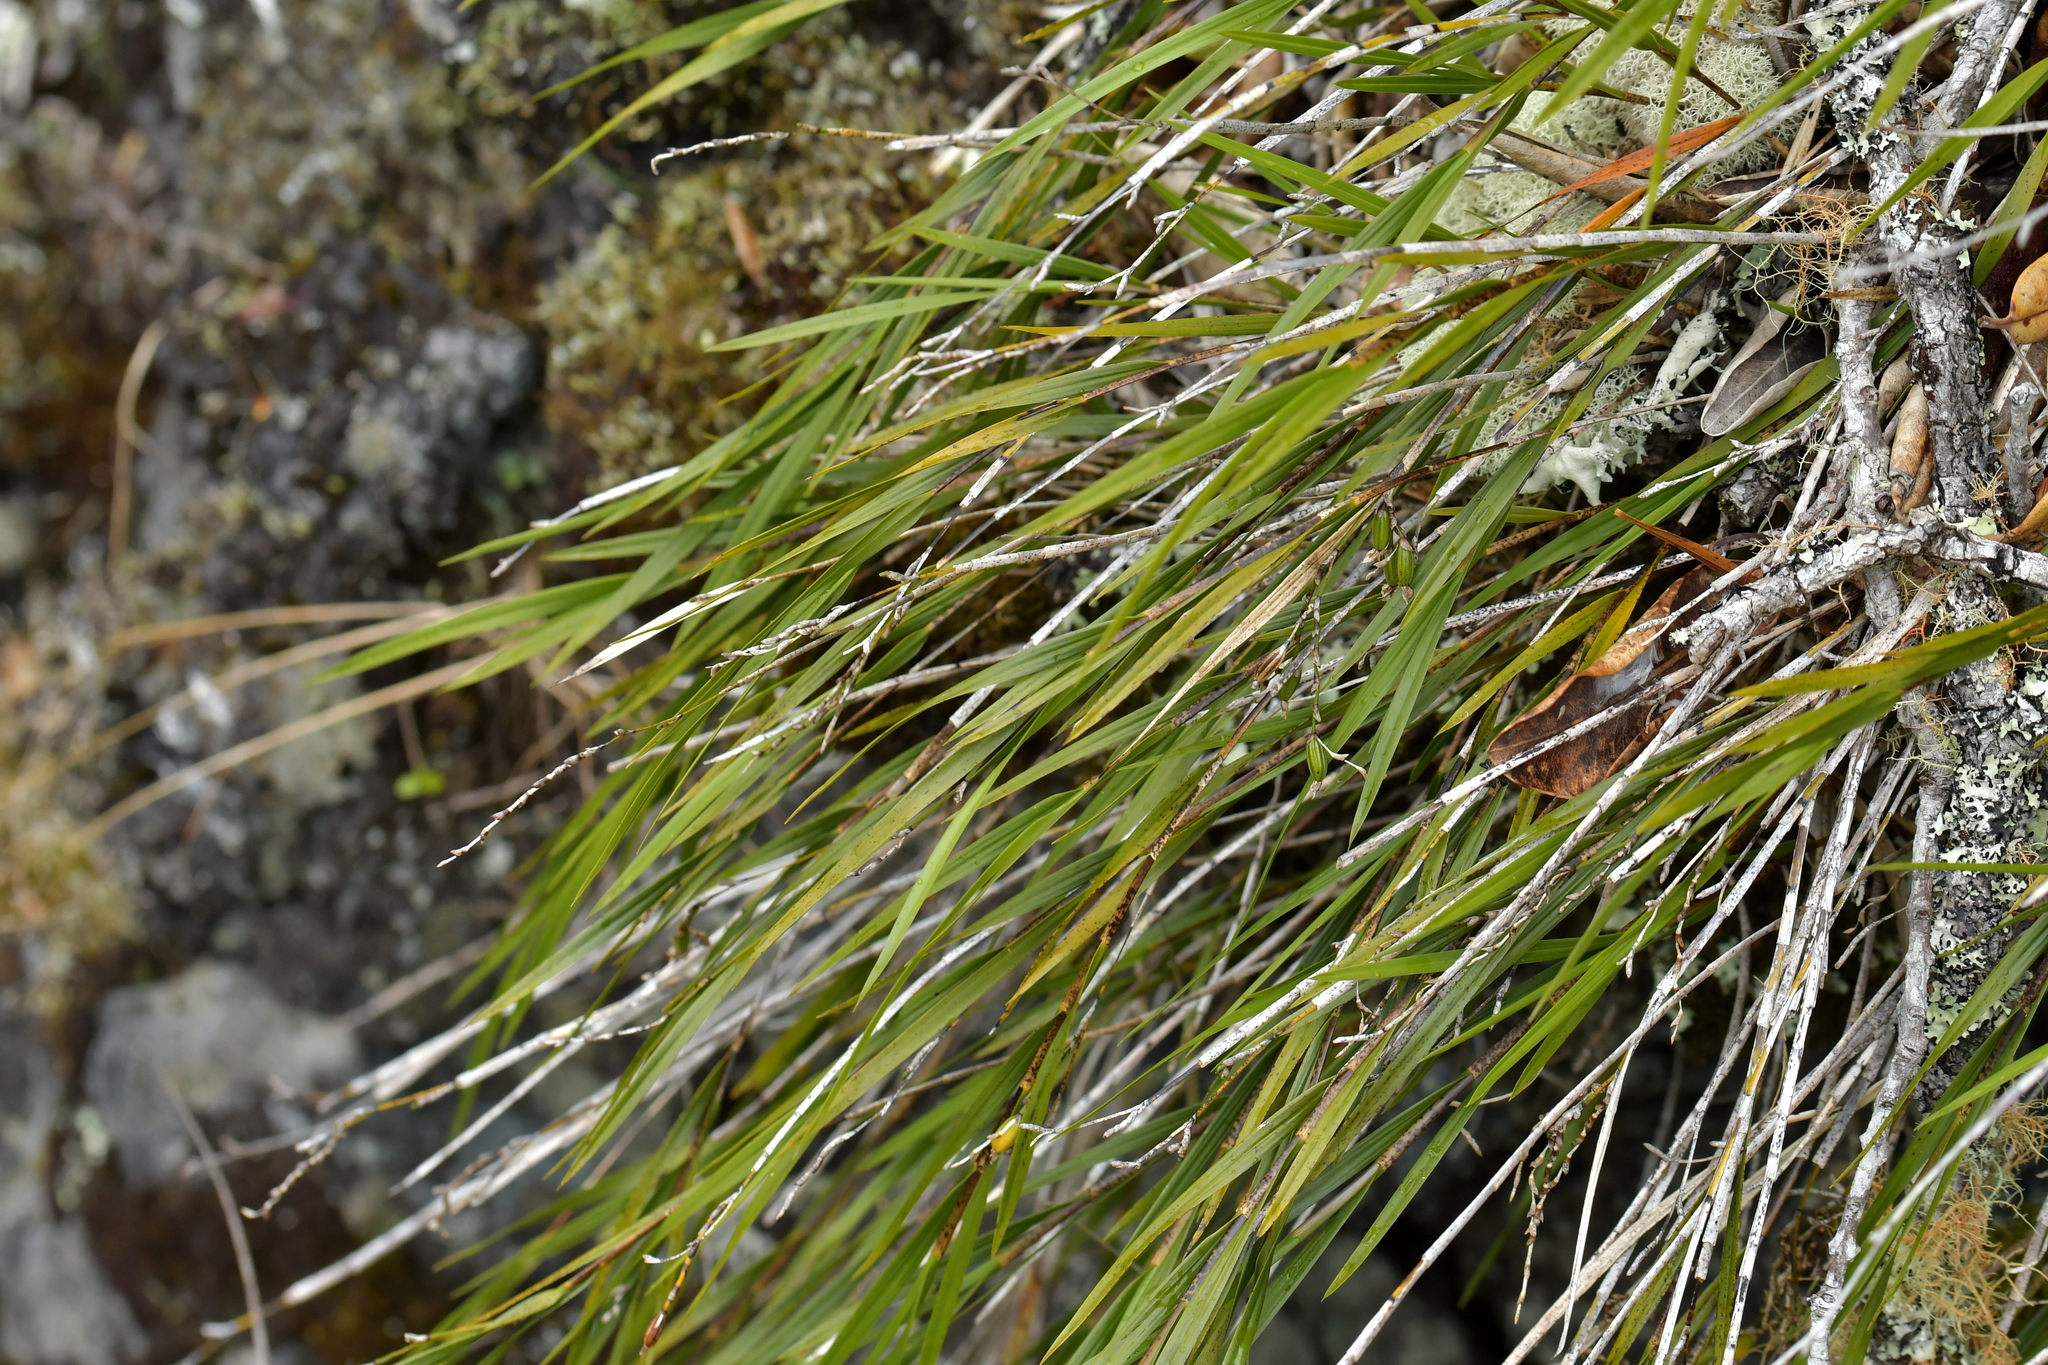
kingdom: Plantae
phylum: Tracheophyta
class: Liliopsida
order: Asparagales
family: Orchidaceae
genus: Earina
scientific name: Earina mucronata
